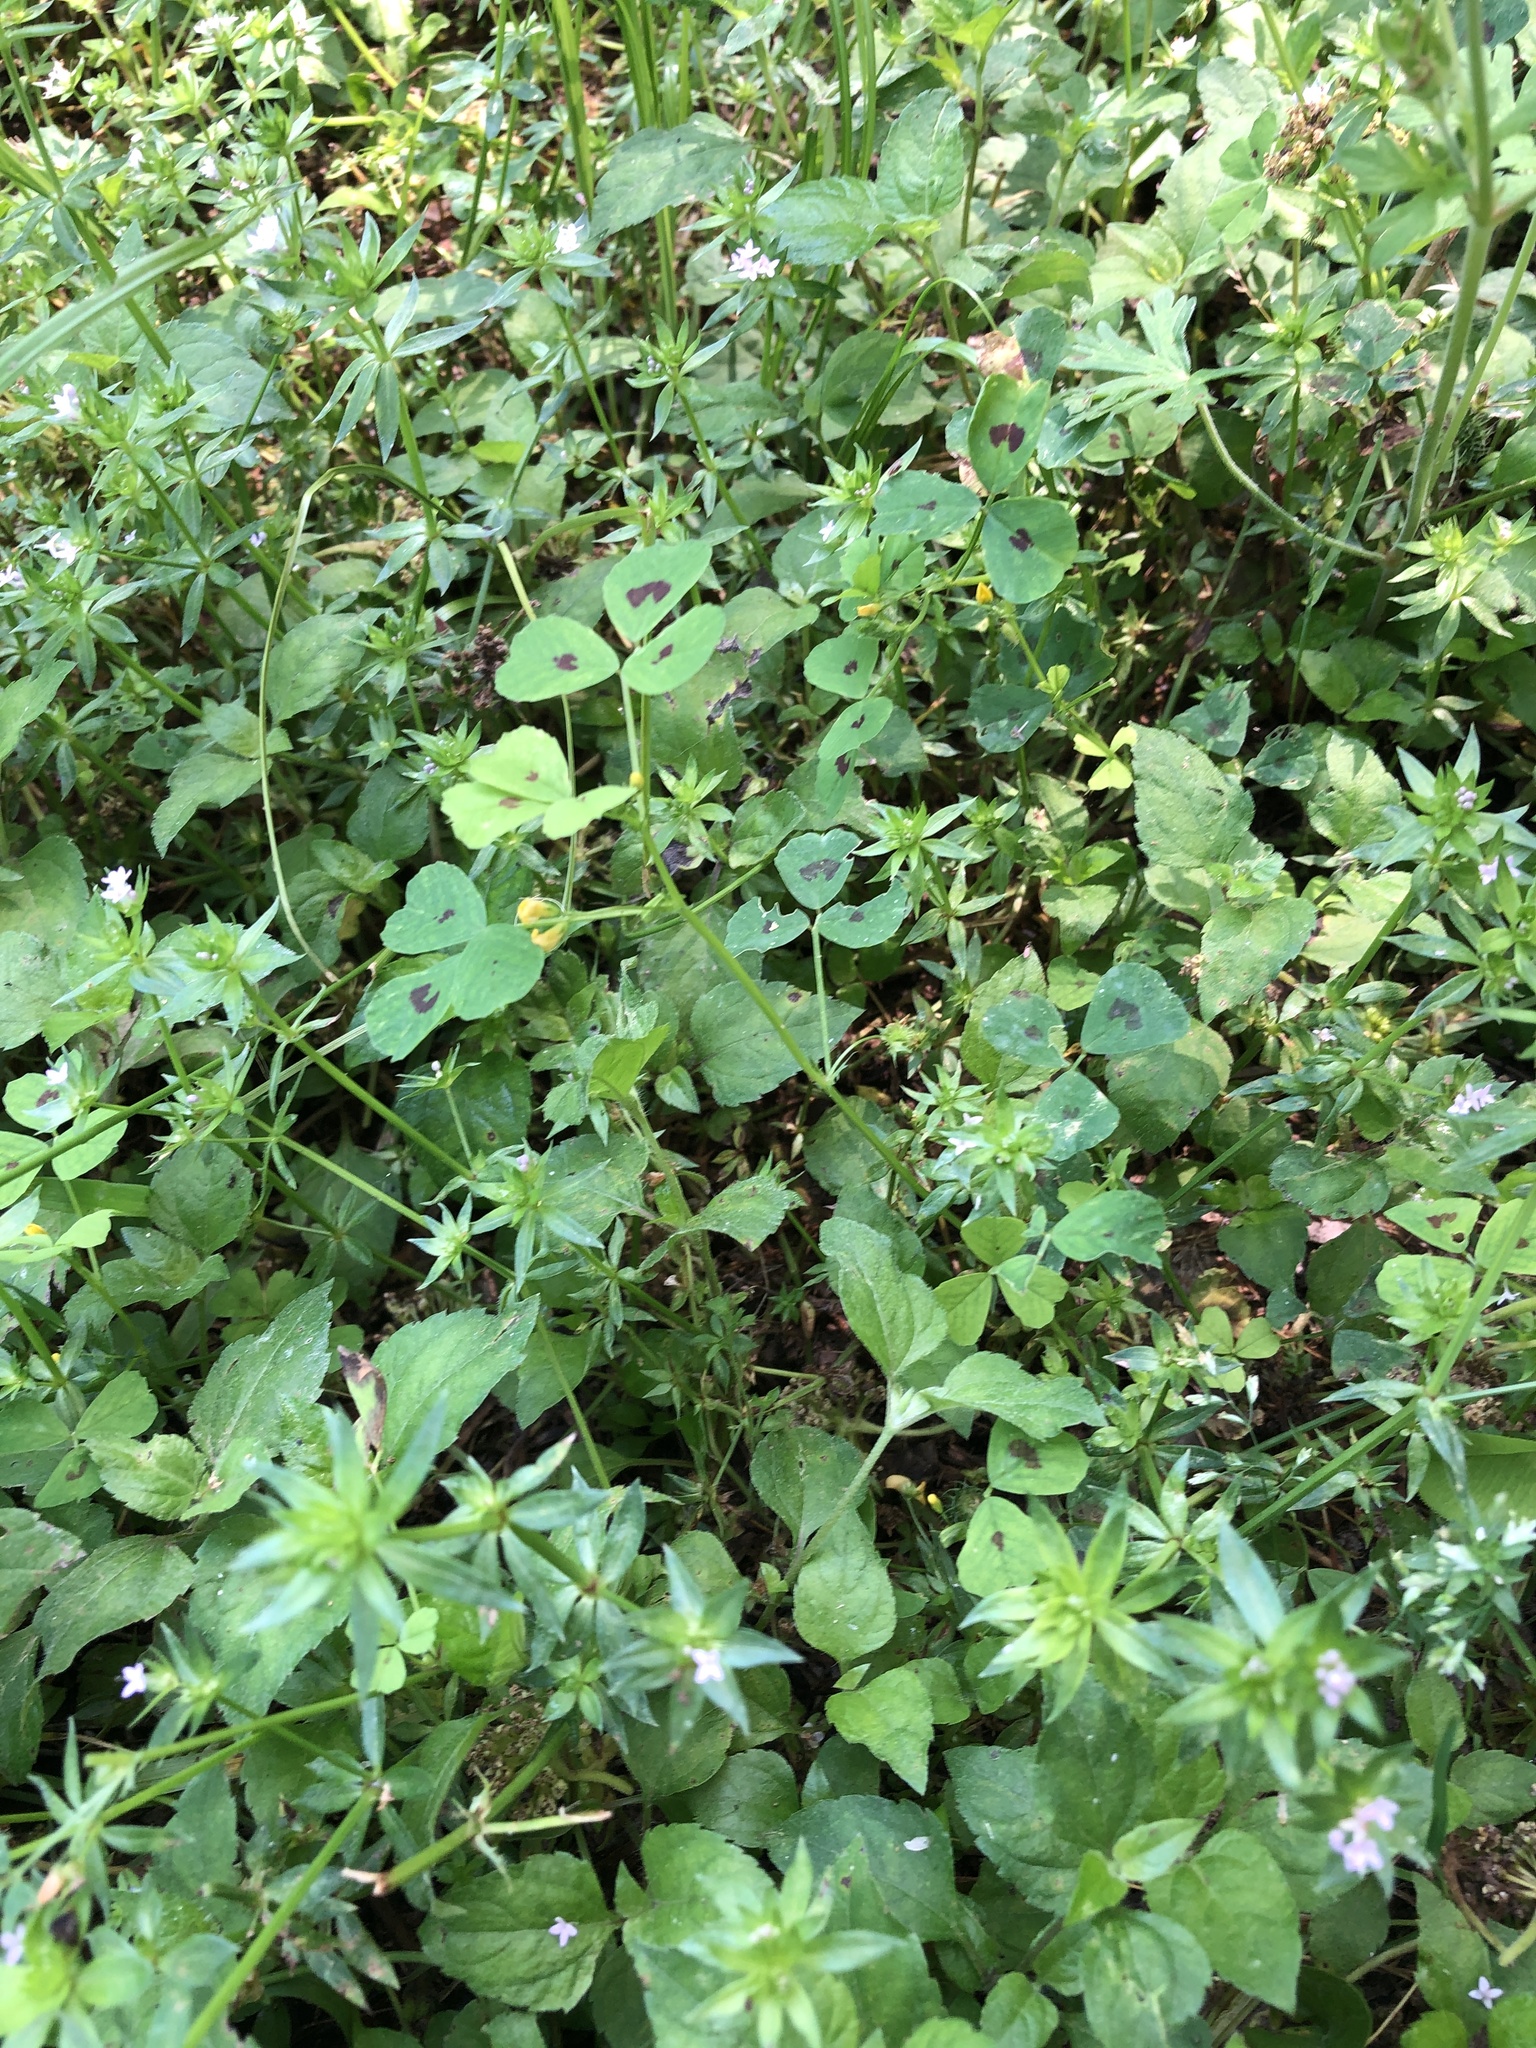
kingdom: Plantae
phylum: Tracheophyta
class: Magnoliopsida
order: Fabales
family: Fabaceae
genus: Medicago
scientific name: Medicago arabica
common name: Spotted medick
